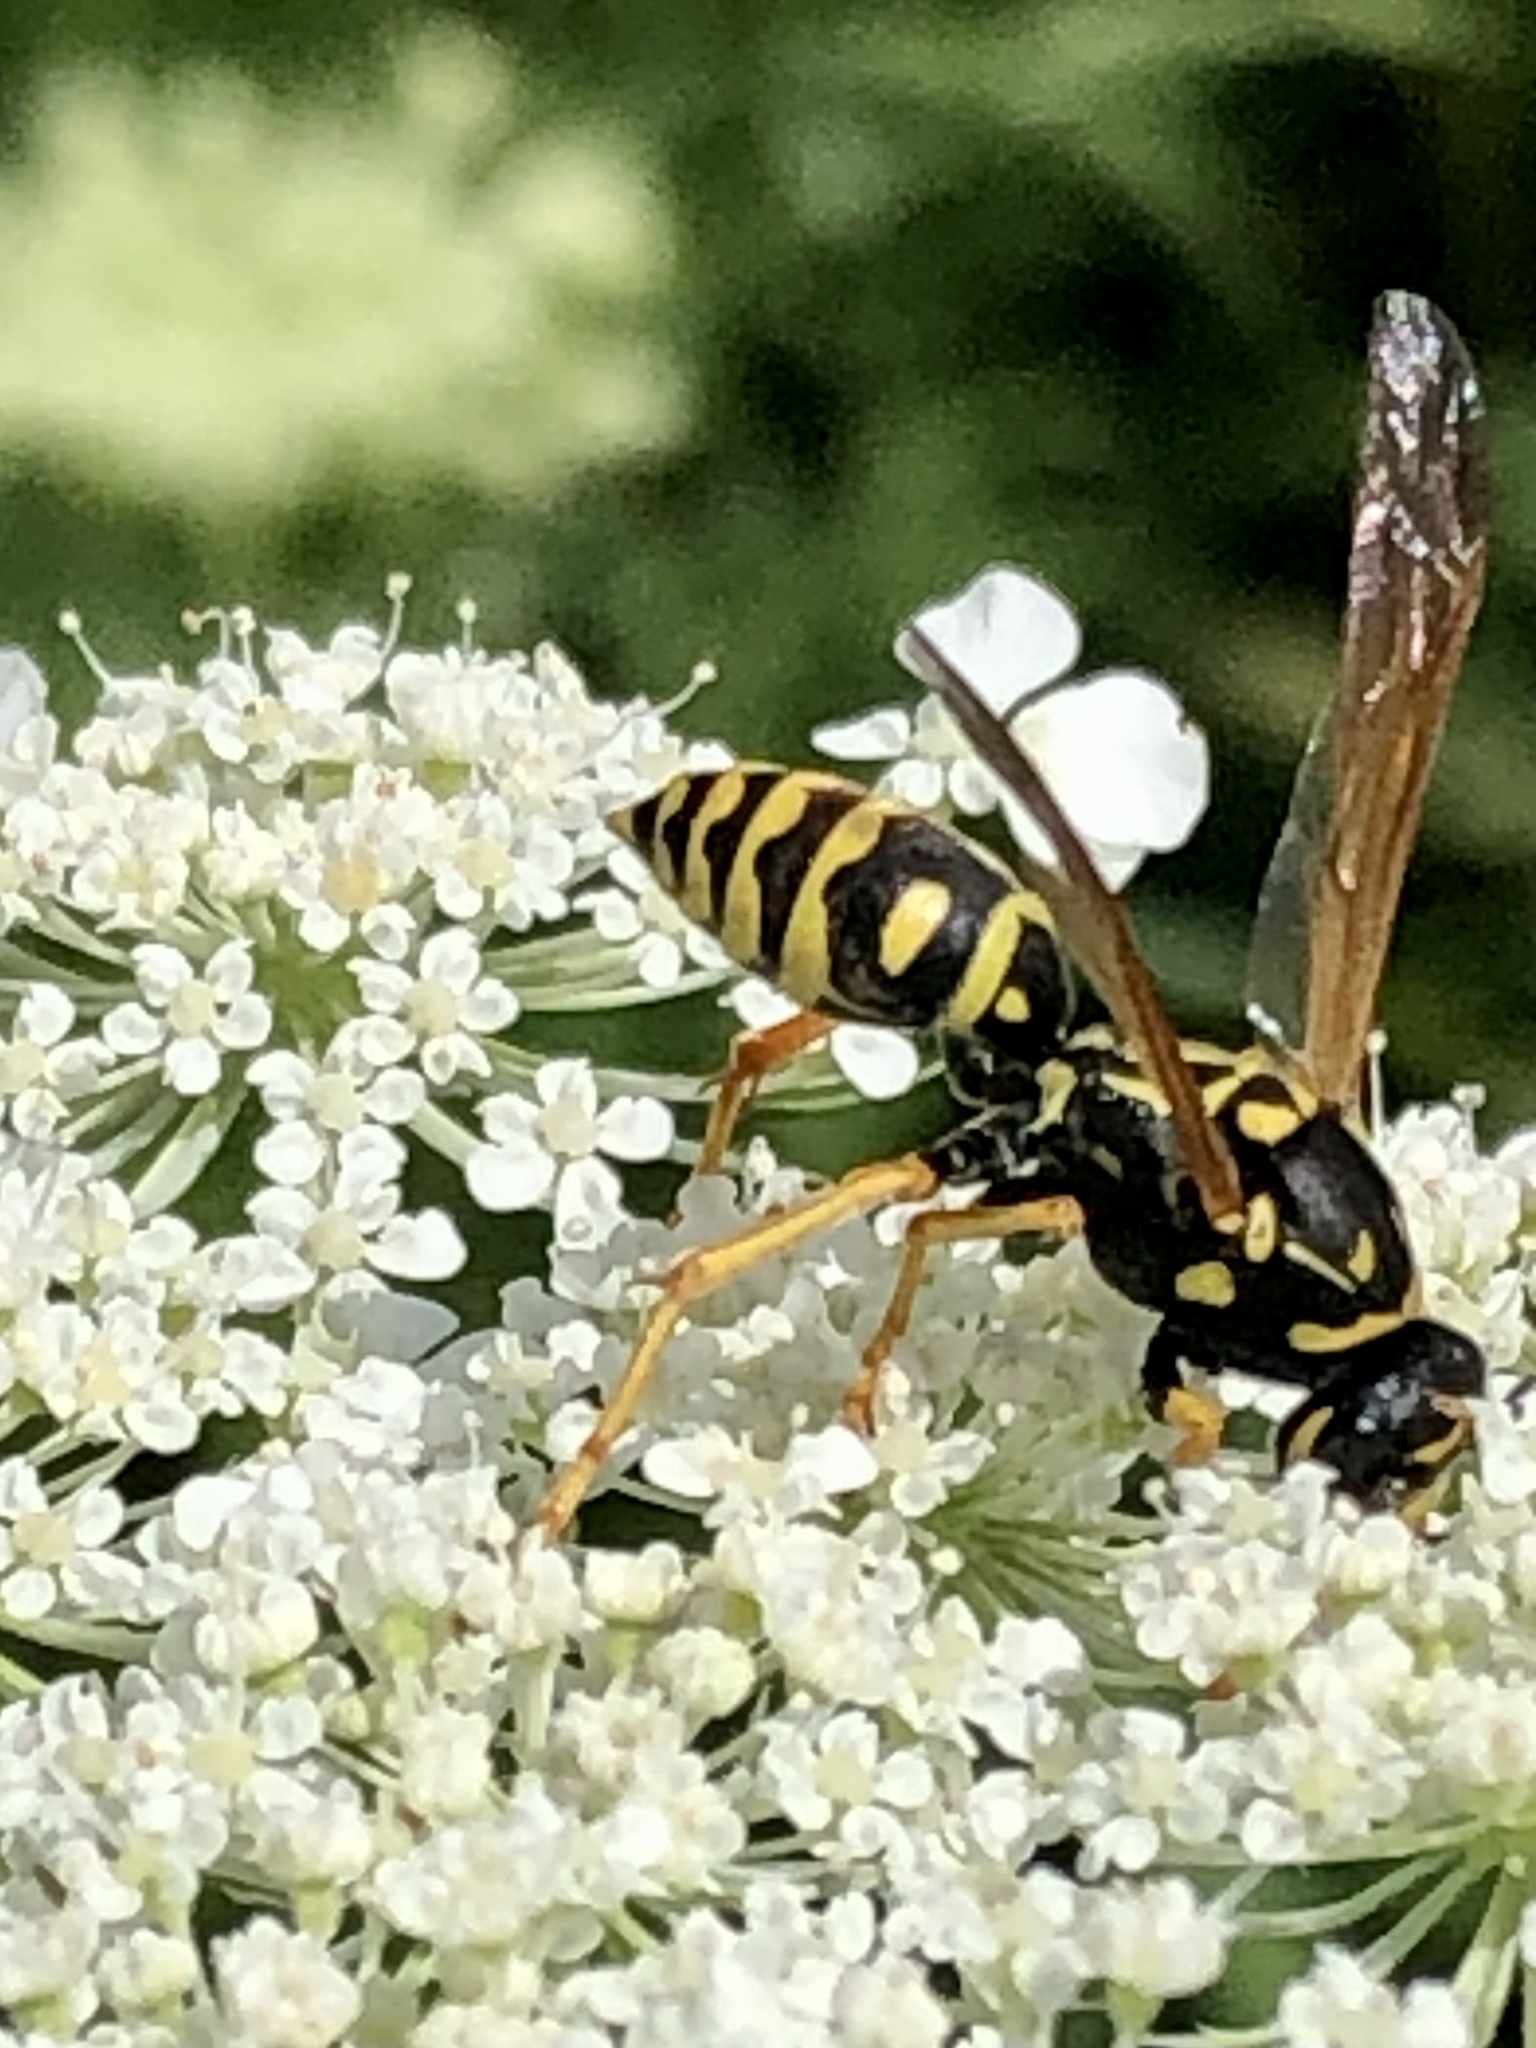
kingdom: Animalia
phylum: Arthropoda
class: Insecta
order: Hymenoptera
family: Eumenidae
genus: Polistes
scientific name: Polistes dominula
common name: Paper wasp
